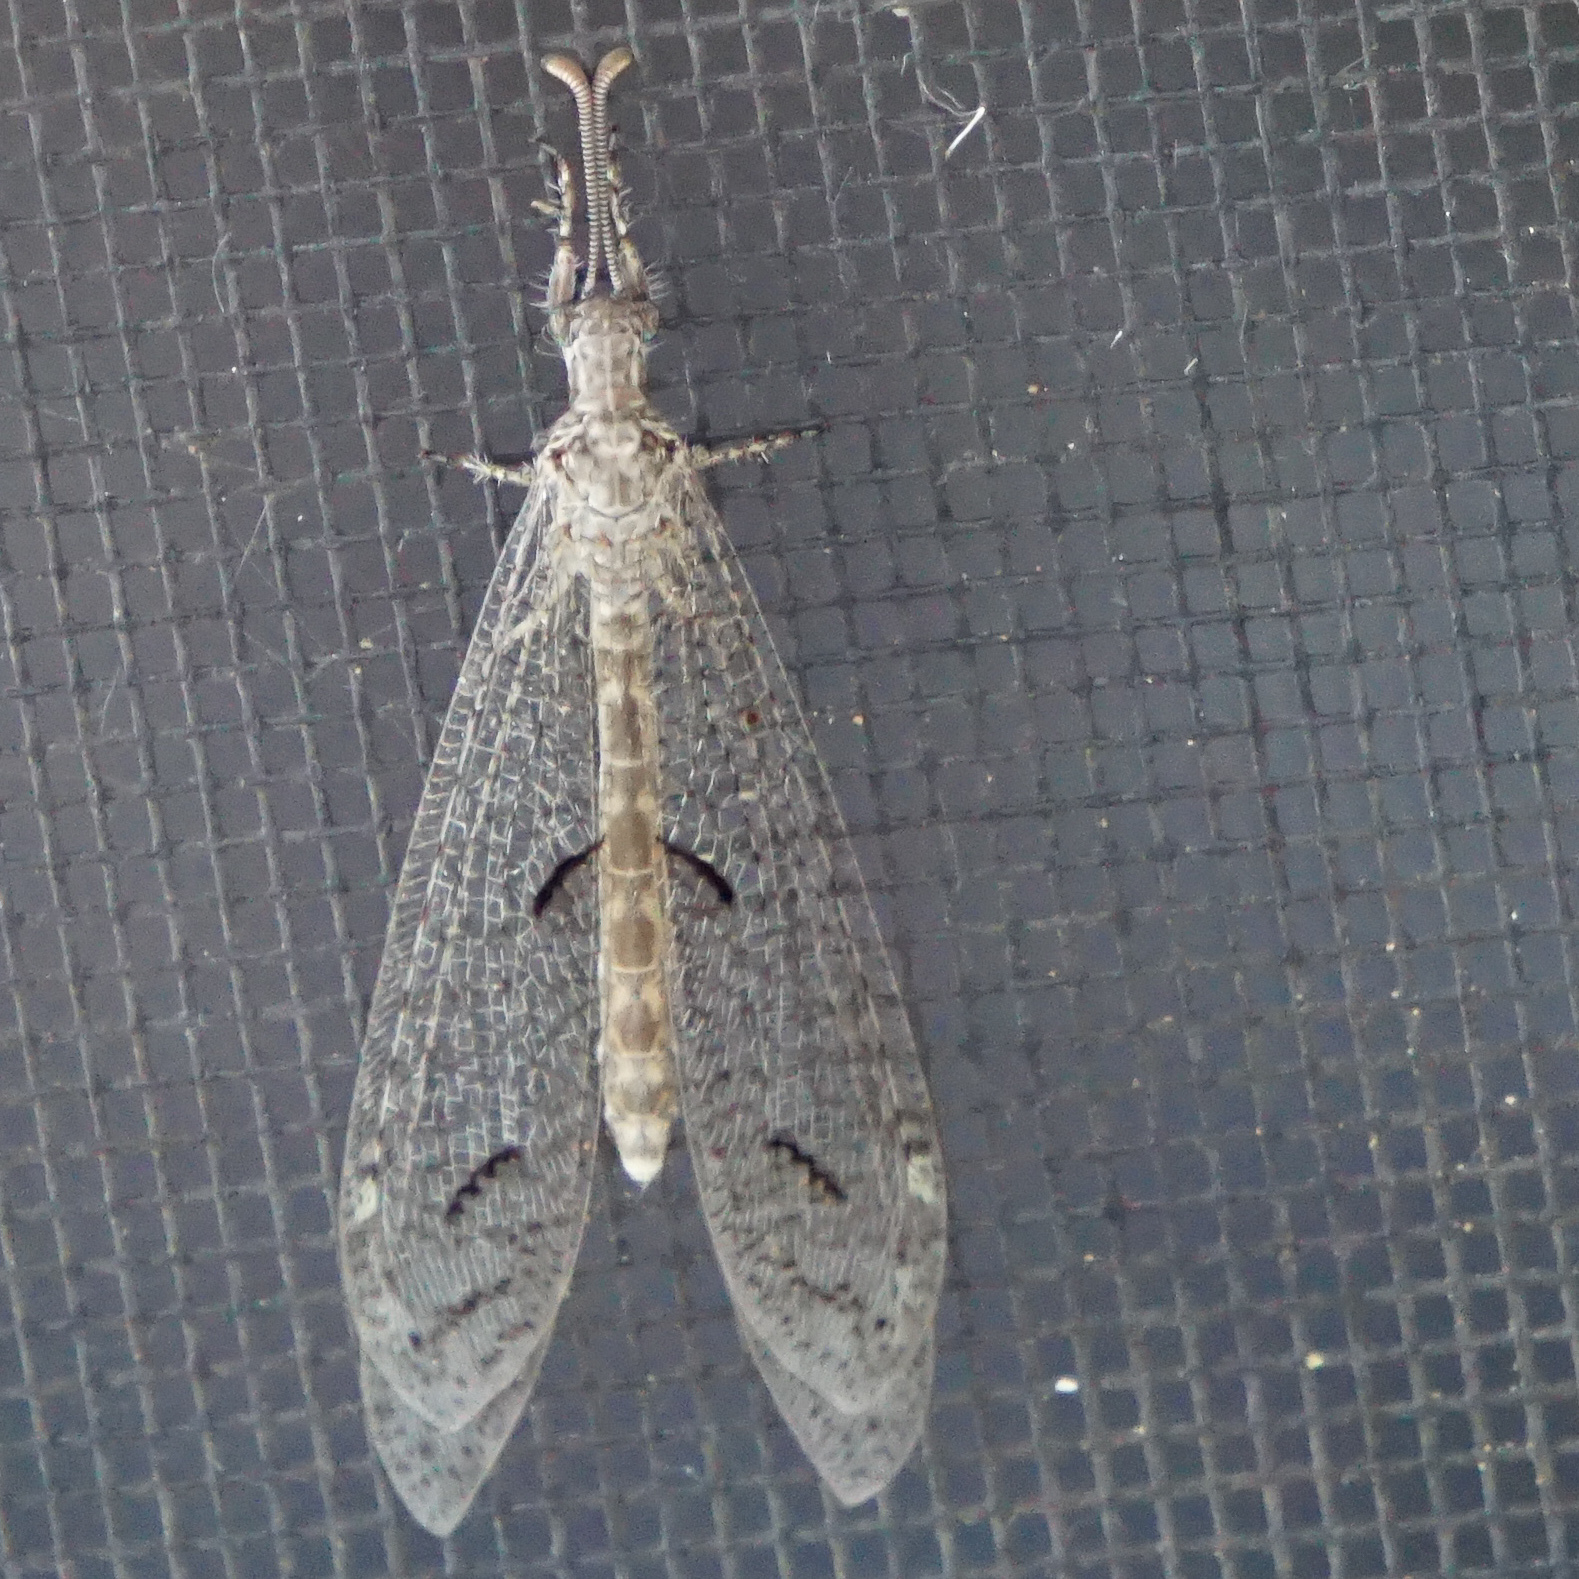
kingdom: Animalia
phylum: Arthropoda
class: Insecta
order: Neuroptera
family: Myrmeleontidae
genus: Euptilon
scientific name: Euptilon ornatum
